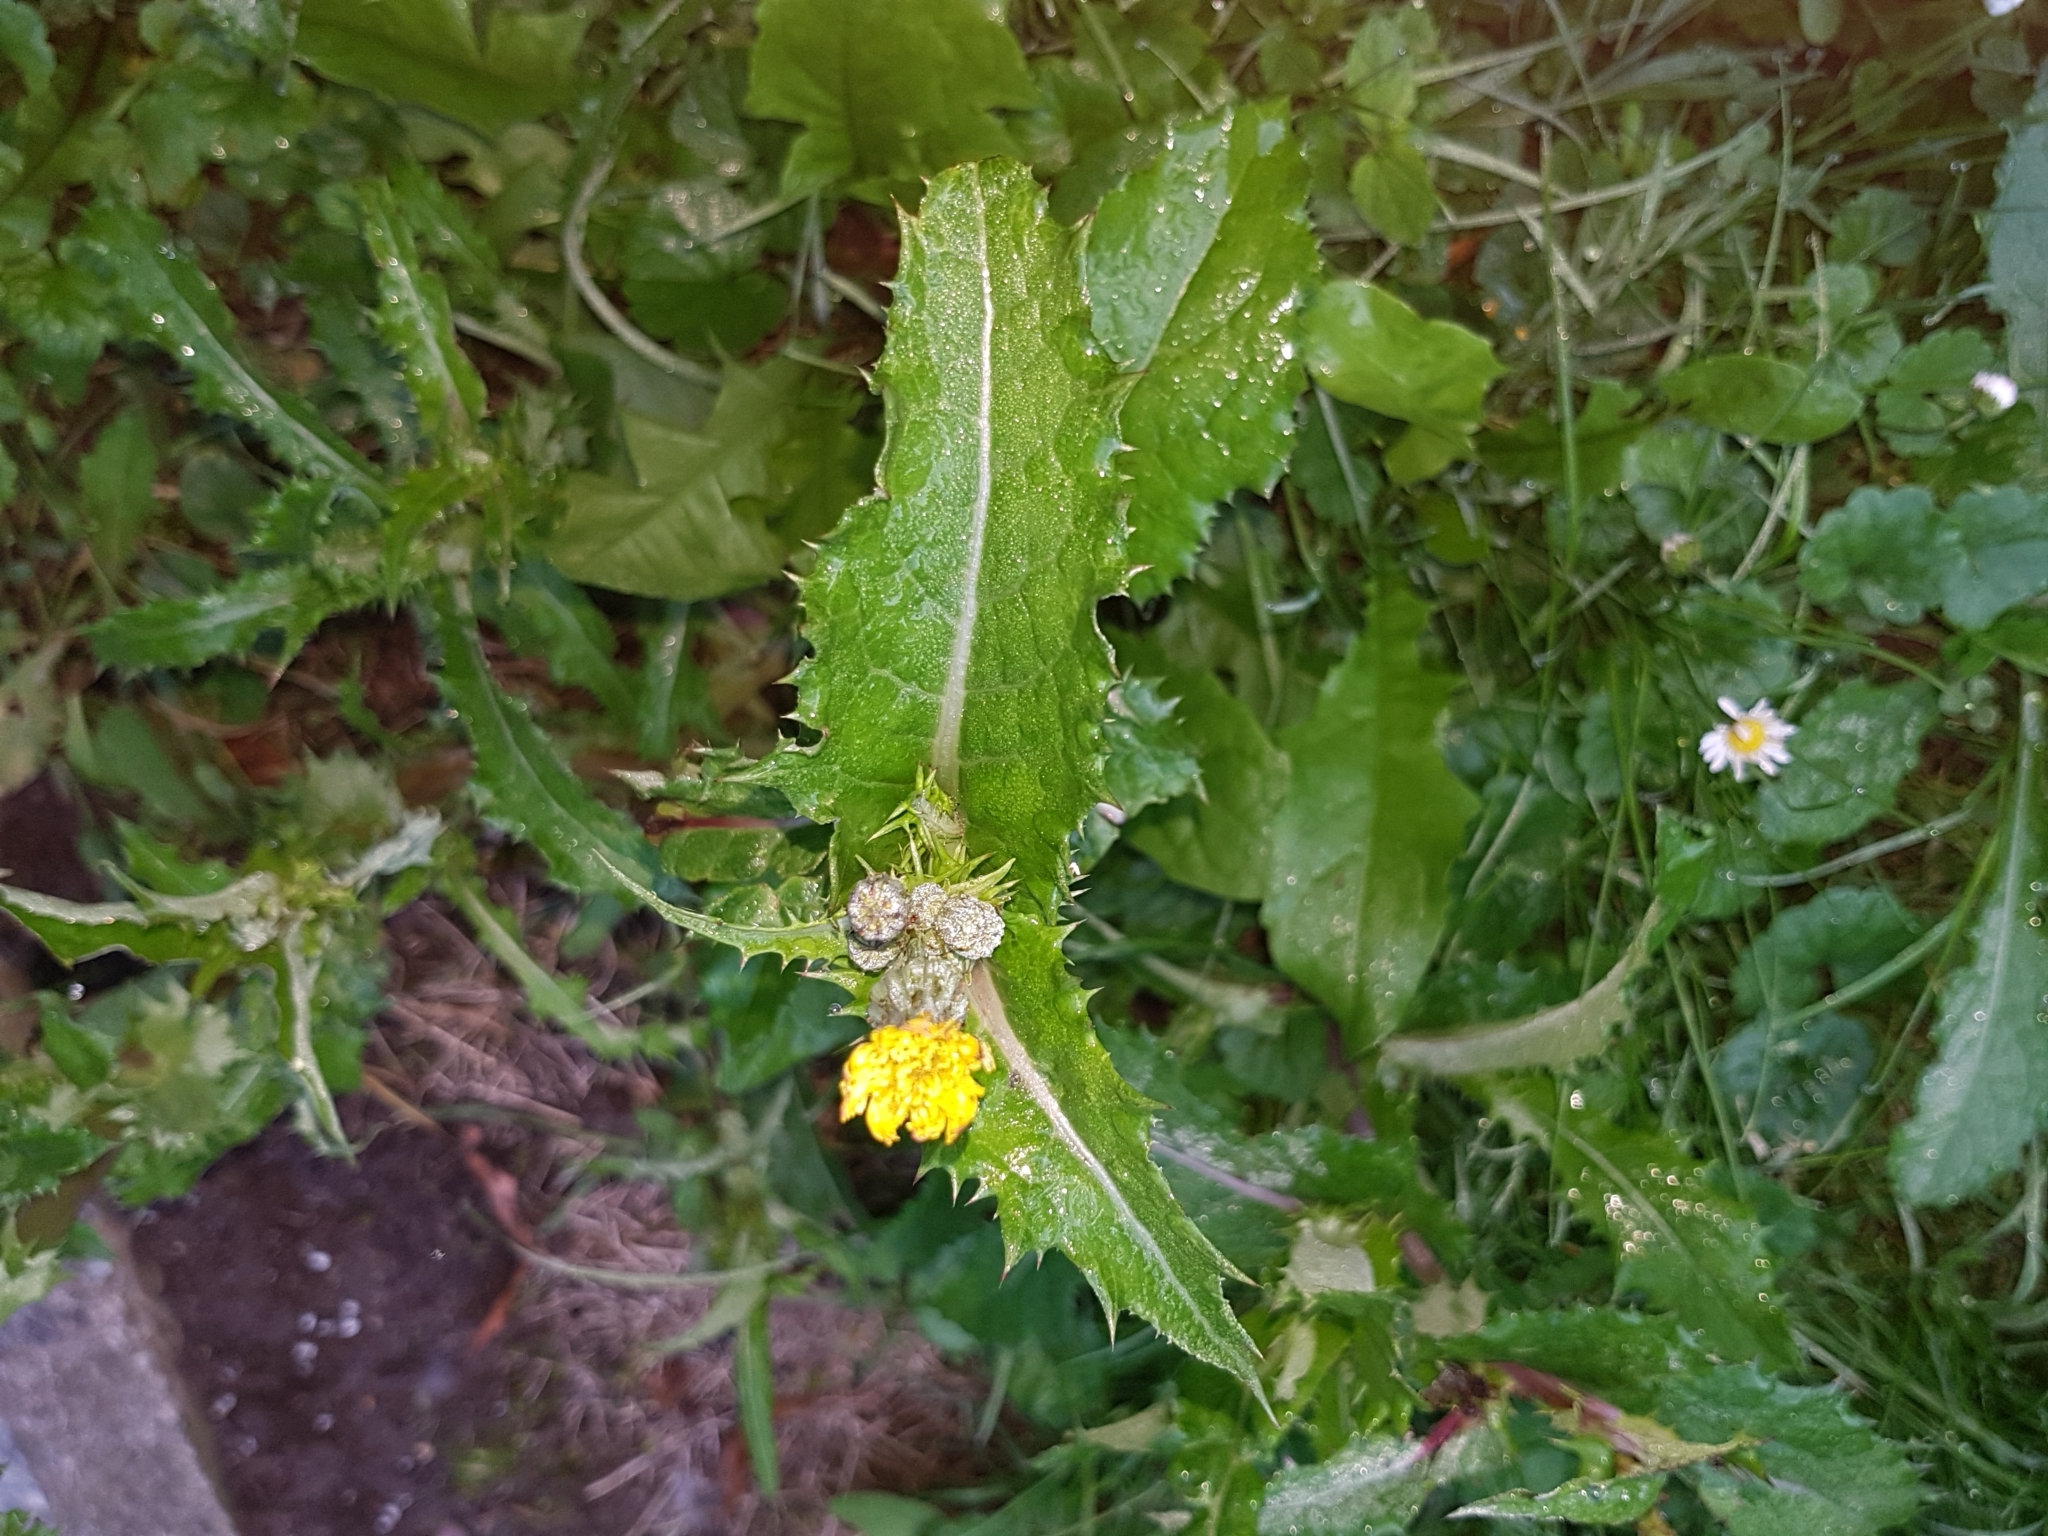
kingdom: Plantae
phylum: Tracheophyta
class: Magnoliopsida
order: Asterales
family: Asteraceae
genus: Sonchus
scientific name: Sonchus asper
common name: Prickly sow-thistle
